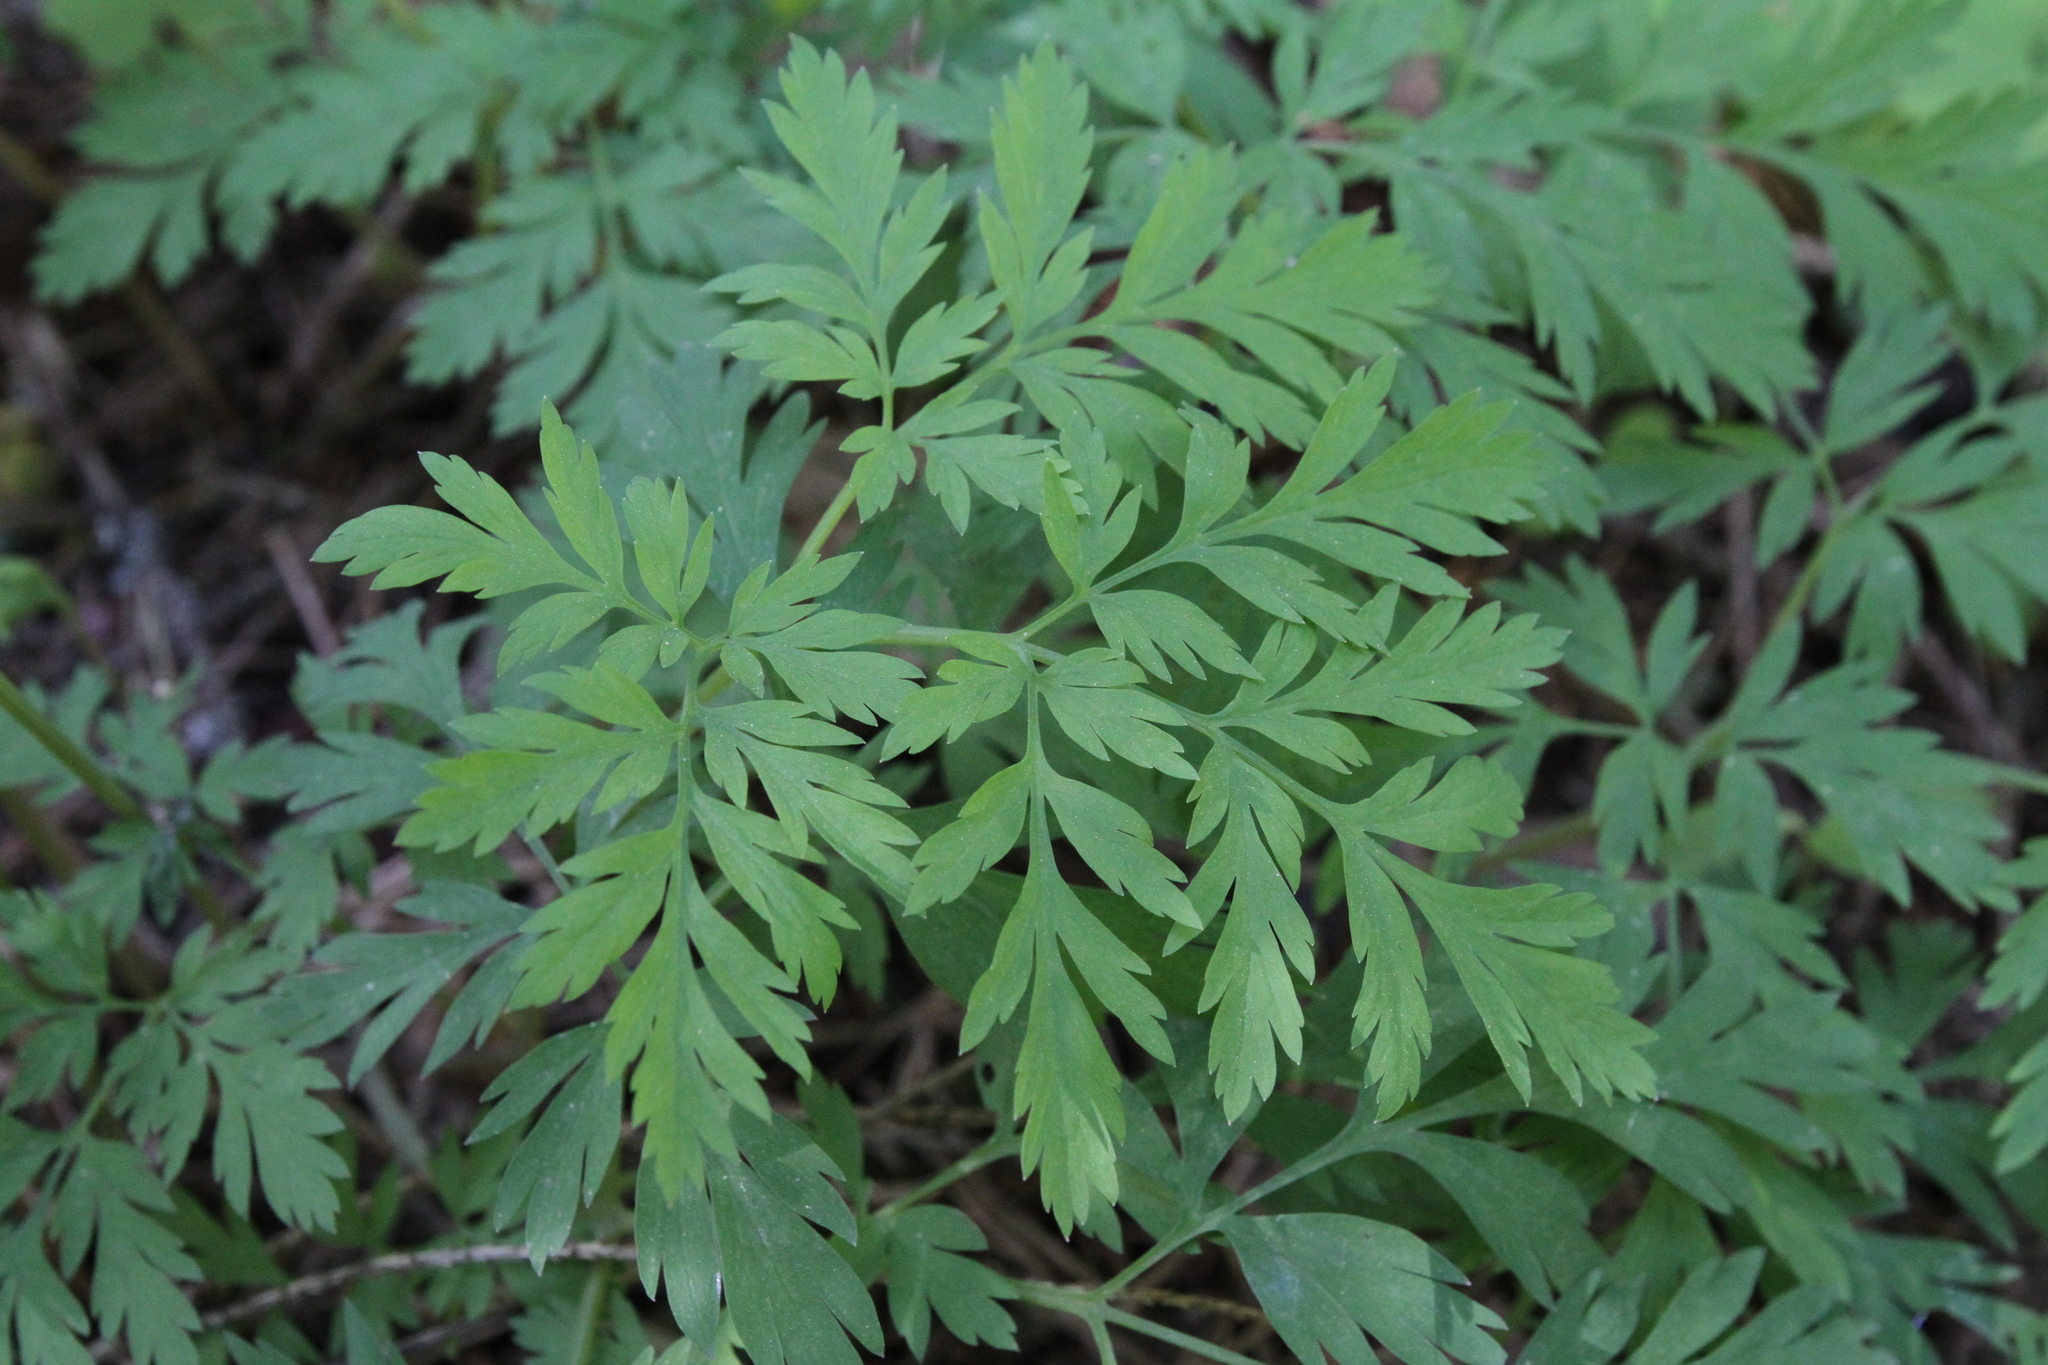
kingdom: Plantae
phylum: Tracheophyta
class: Magnoliopsida
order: Ranunculales
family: Papaveraceae
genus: Dicentra
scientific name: Dicentra formosa
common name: Bleeding-heart
